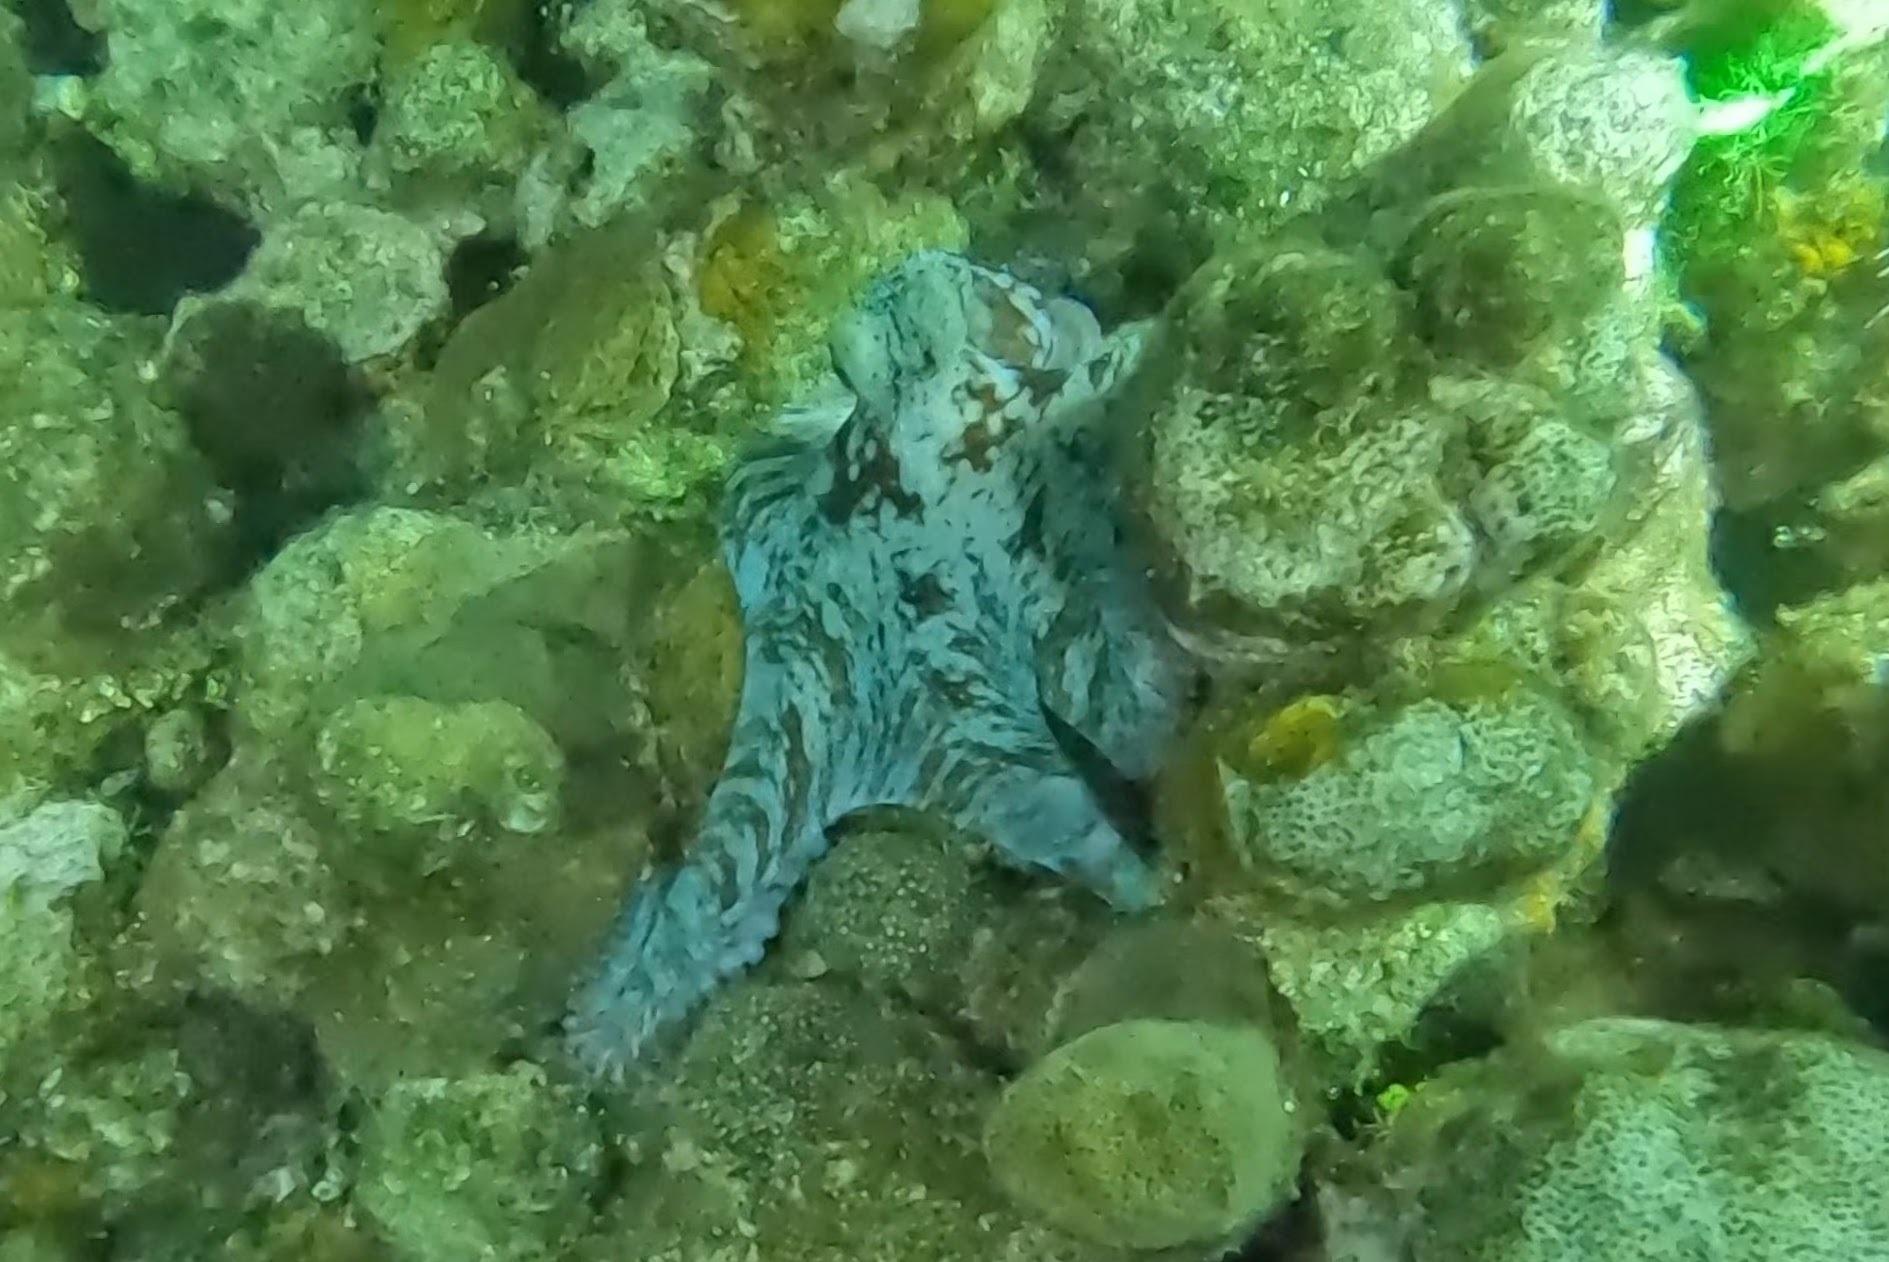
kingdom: Animalia
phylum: Mollusca
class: Cephalopoda
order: Octopoda
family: Octopodidae
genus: Octopus
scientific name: Octopus briareus
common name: Caribbean reef octopus
